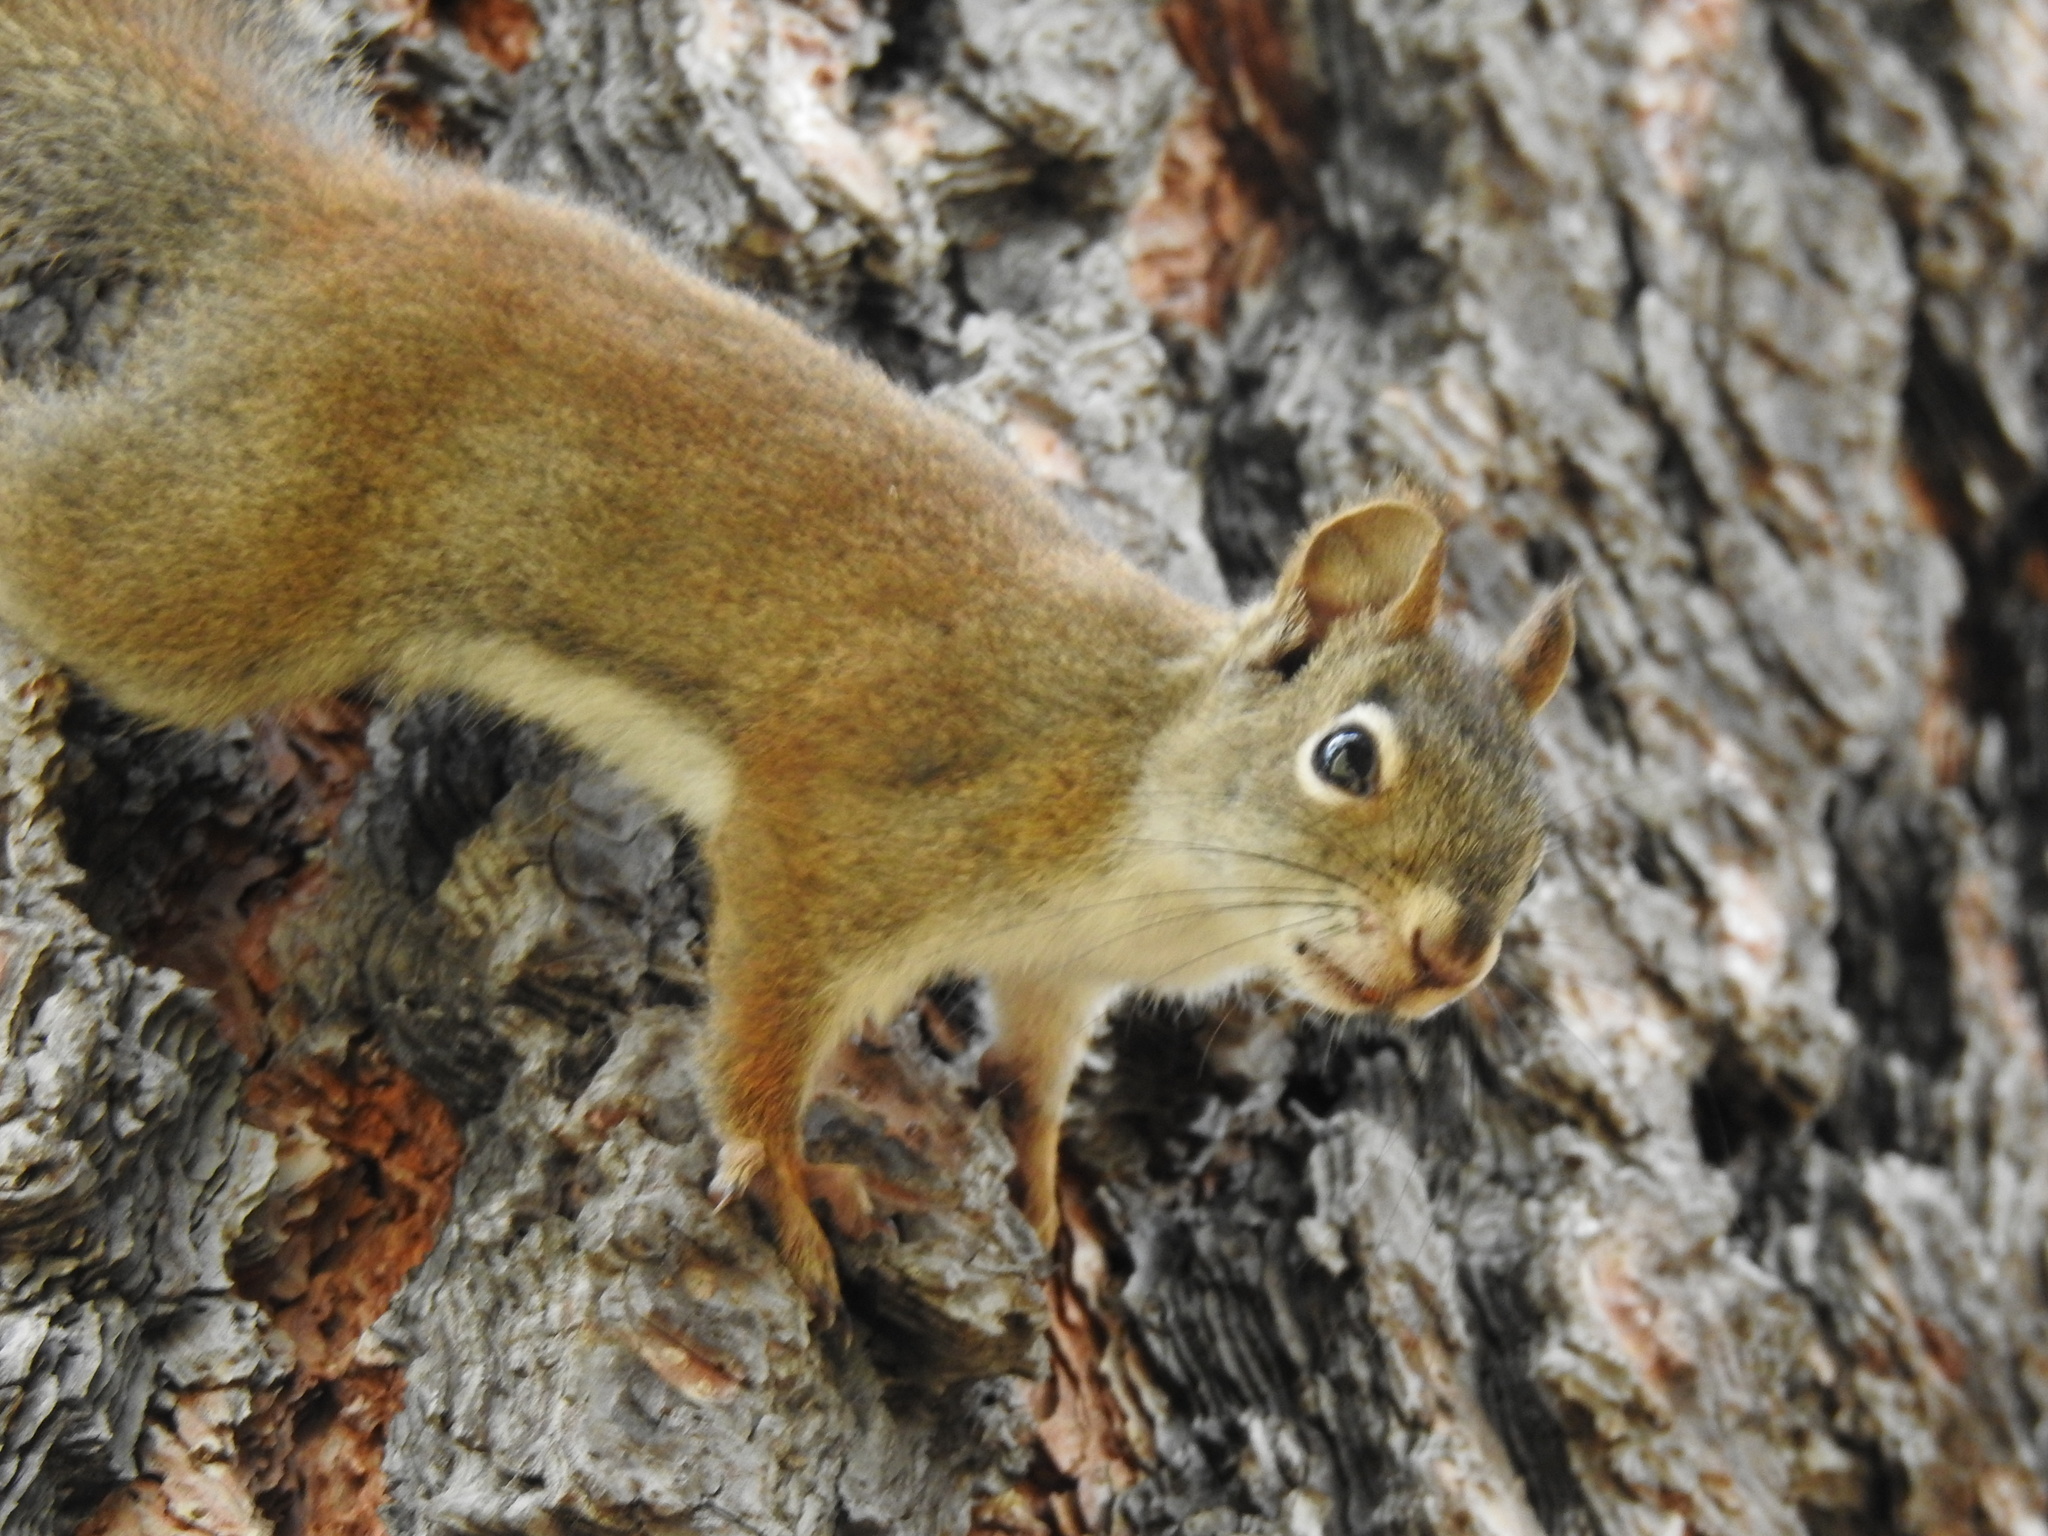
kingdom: Animalia
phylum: Chordata
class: Mammalia
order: Rodentia
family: Sciuridae
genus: Tamiasciurus
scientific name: Tamiasciurus hudsonicus
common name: Red squirrel
